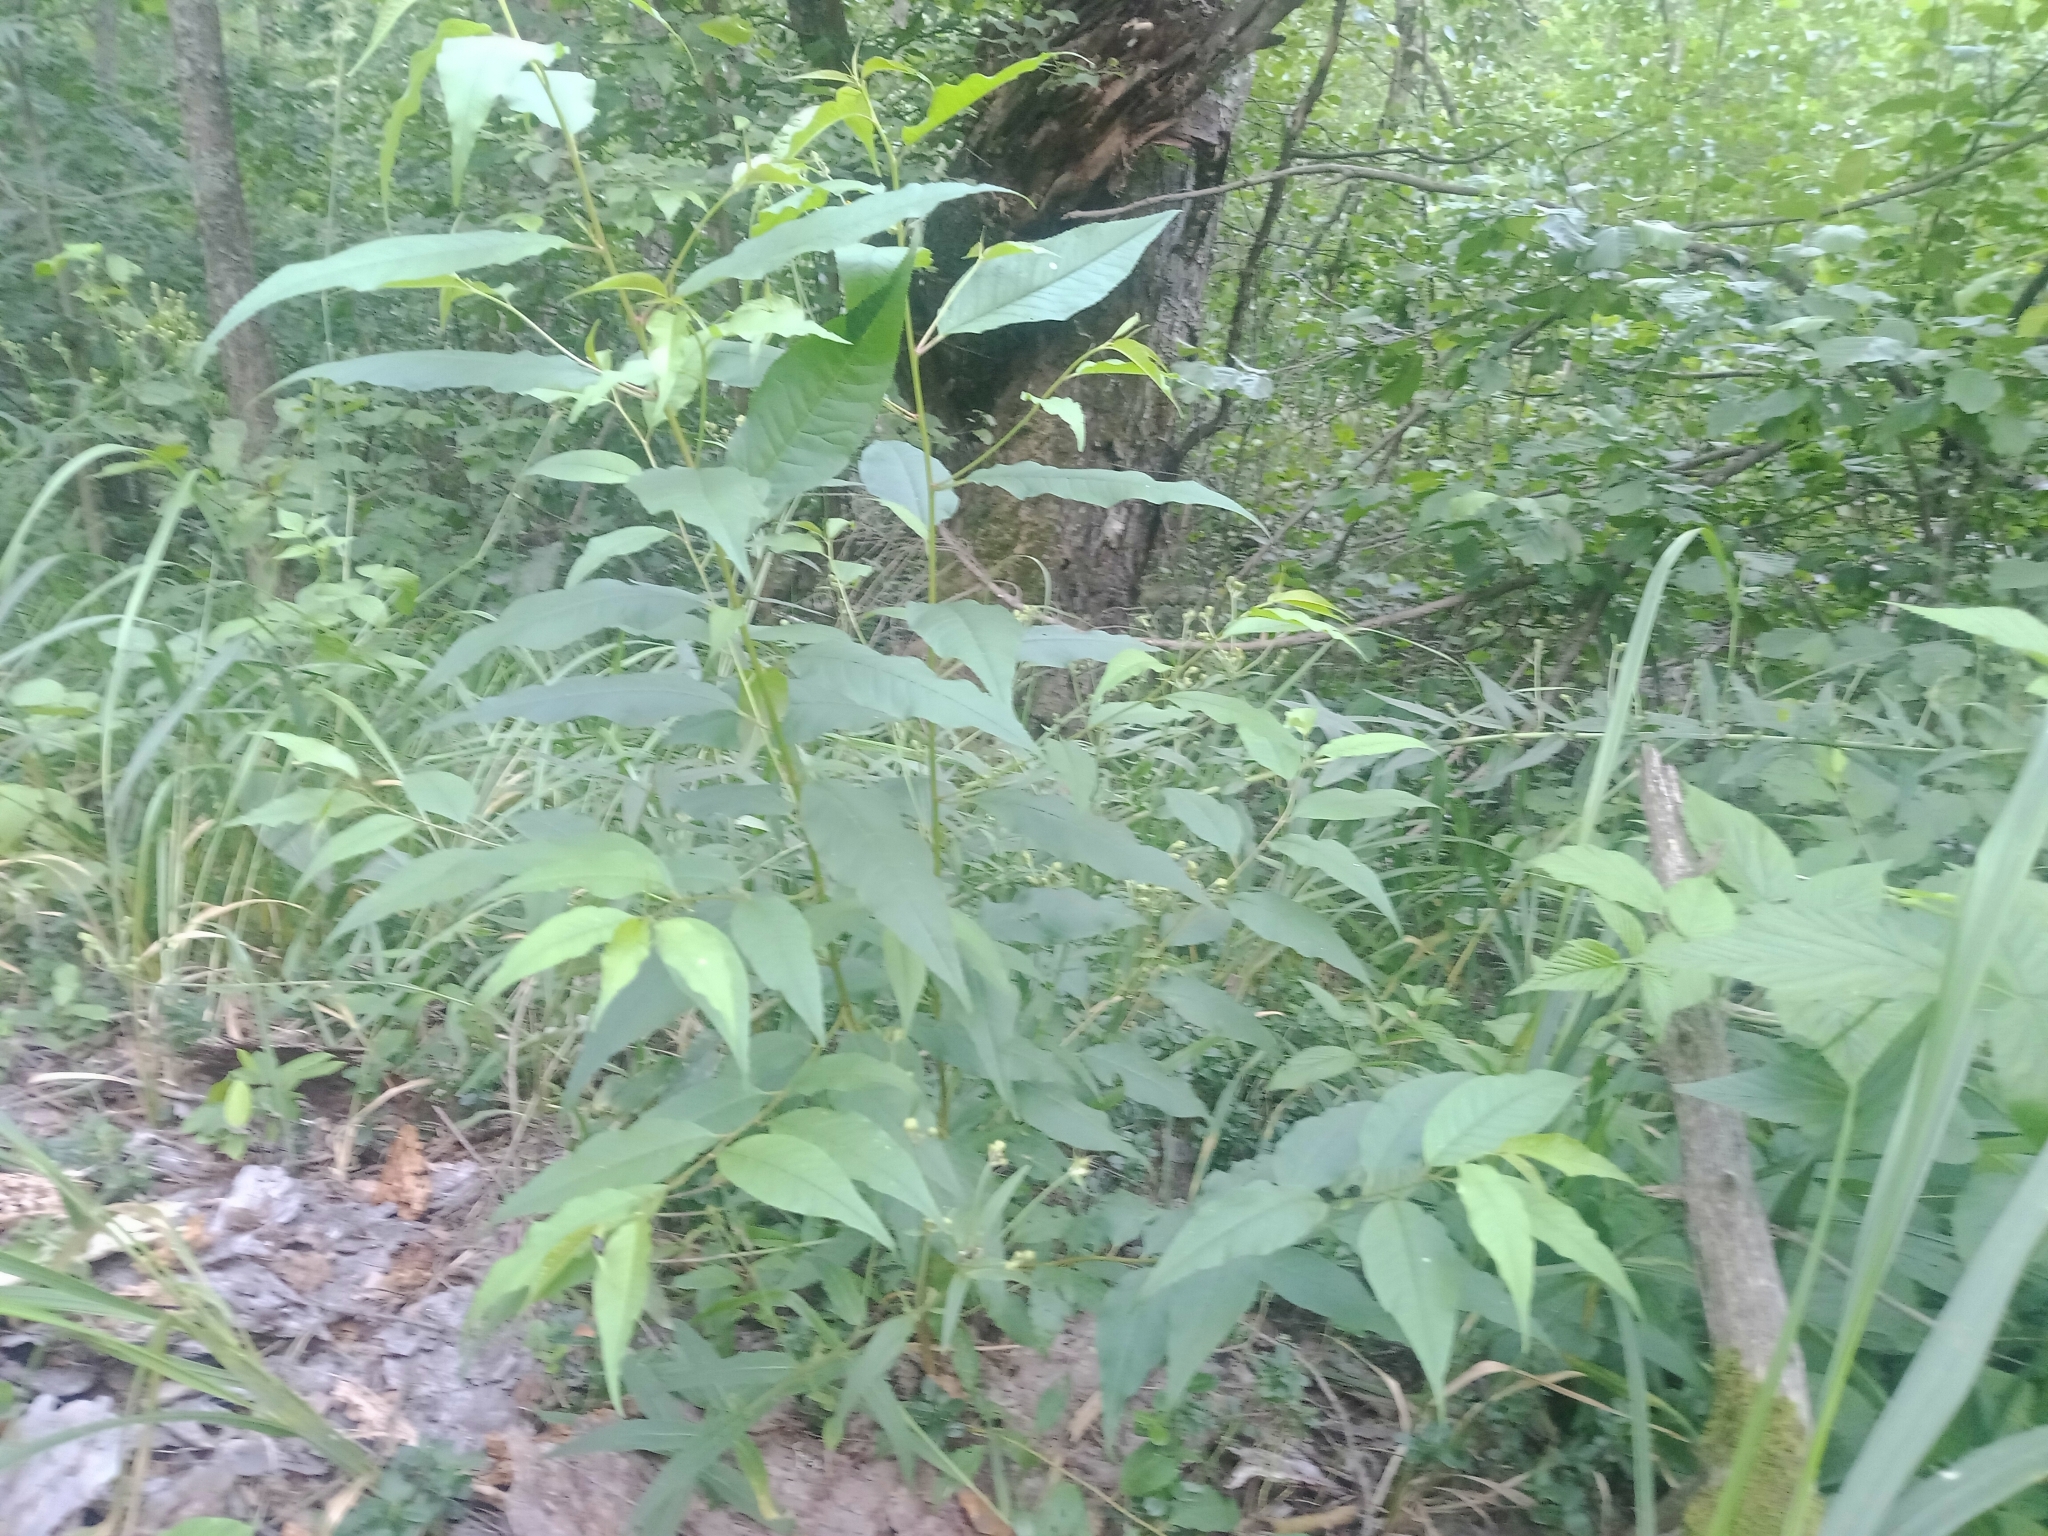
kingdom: Plantae
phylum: Tracheophyta
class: Magnoliopsida
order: Rosales
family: Rosaceae
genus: Prunus
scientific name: Prunus pensylvanica
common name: Pin cherry
